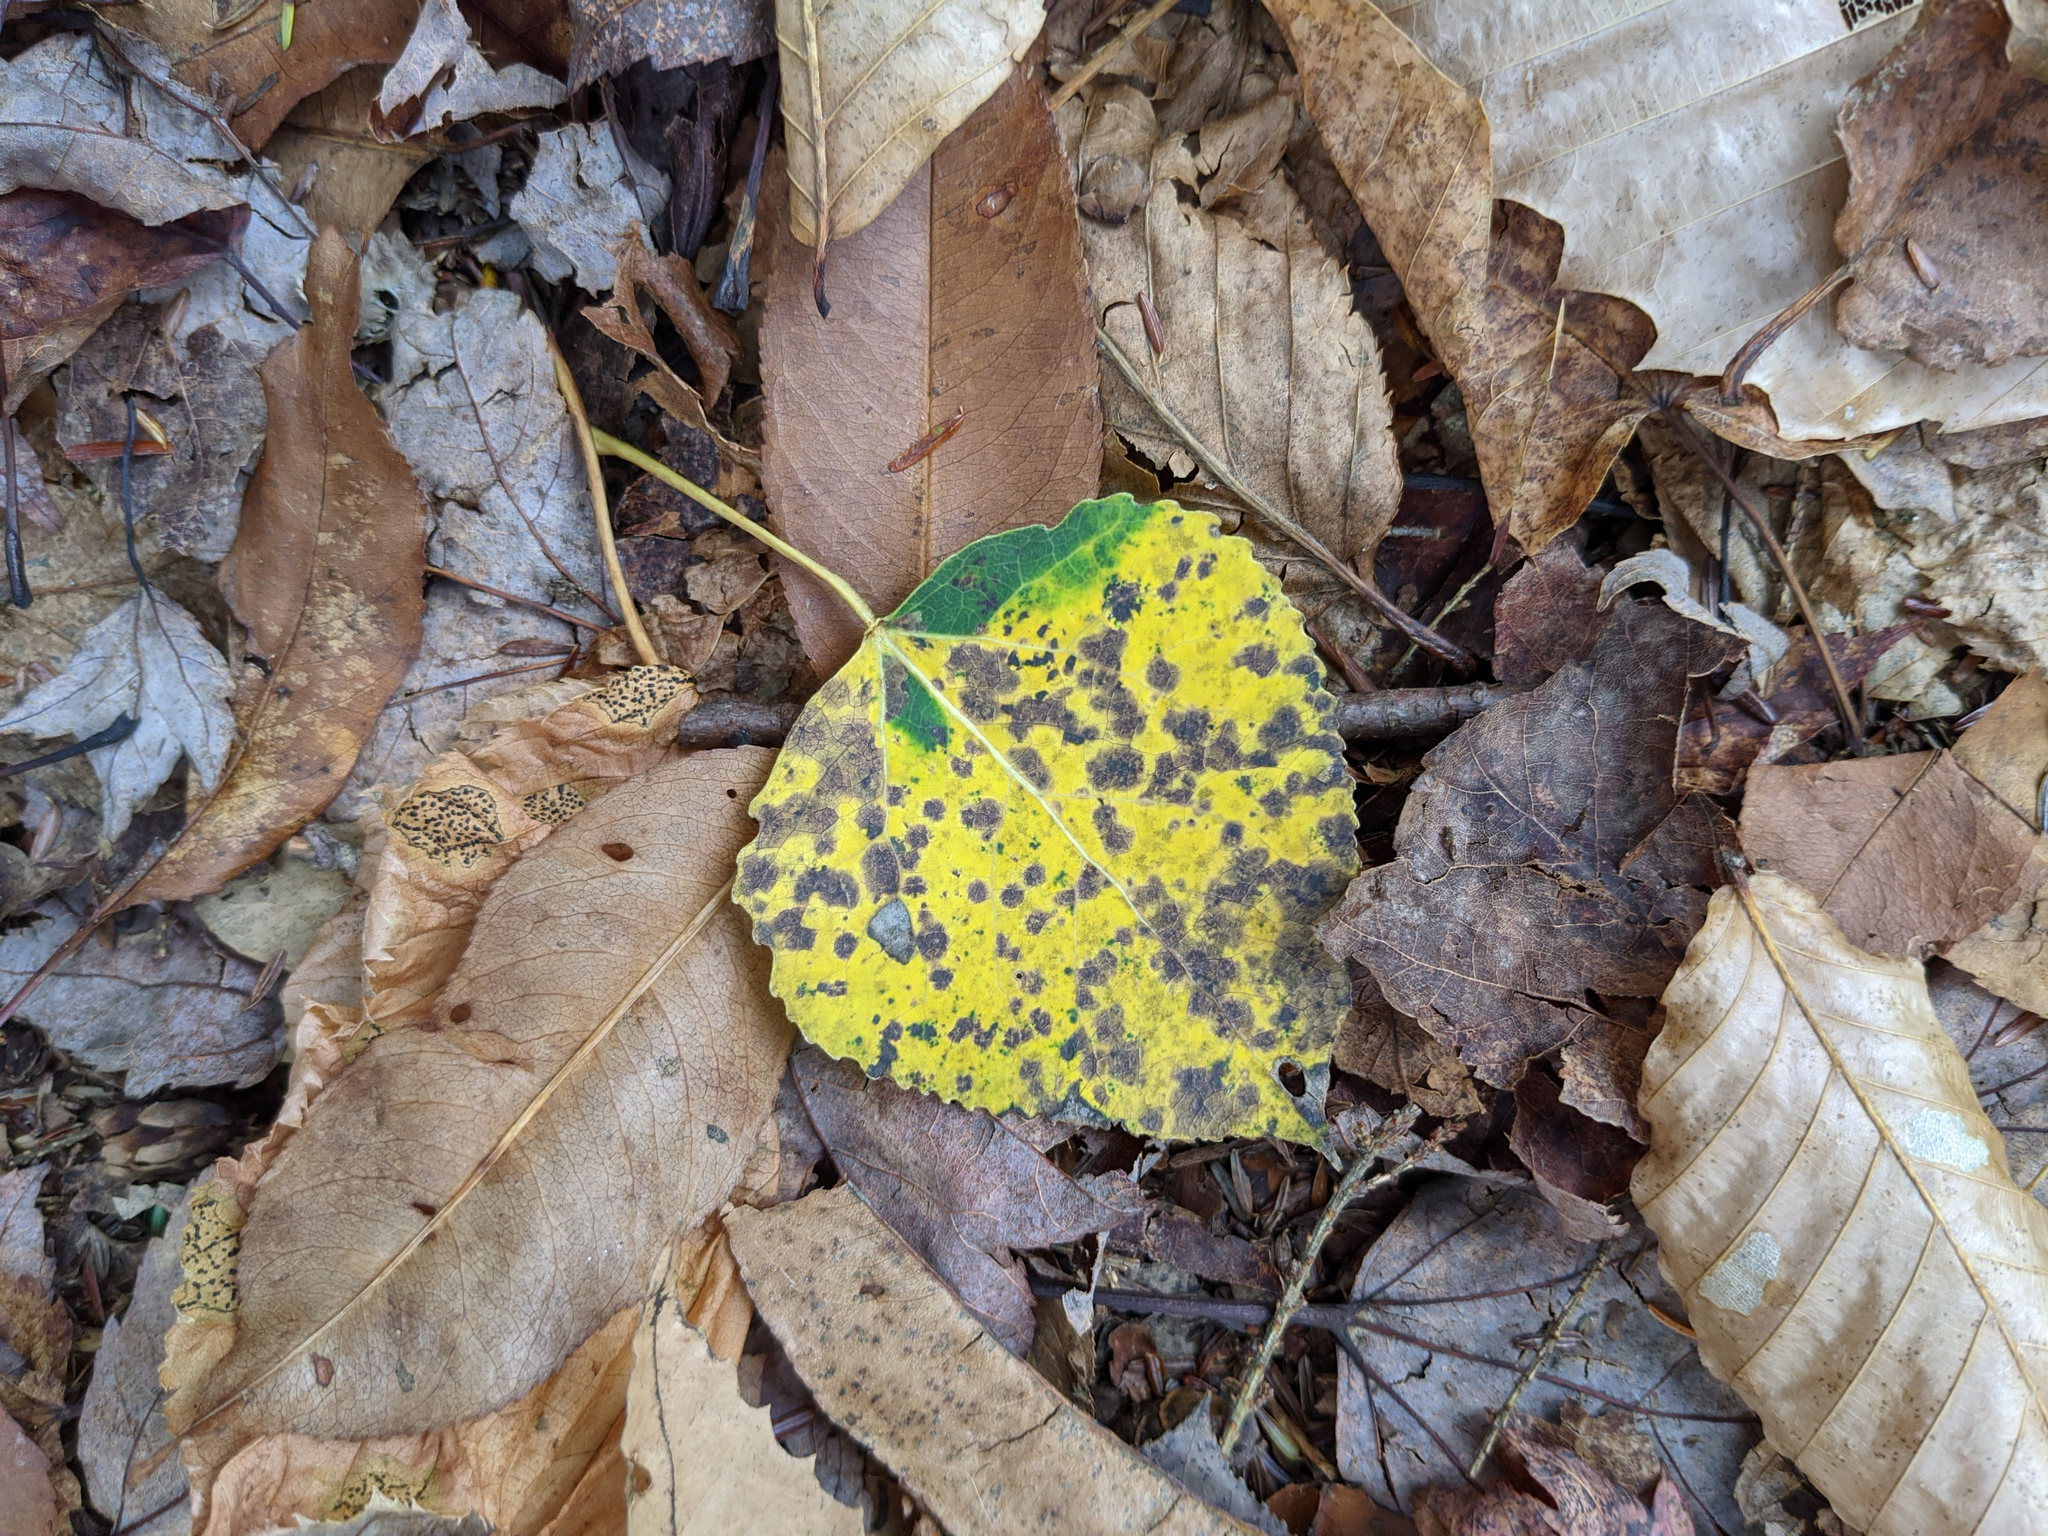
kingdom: Plantae
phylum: Tracheophyta
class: Magnoliopsida
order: Malpighiales
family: Salicaceae
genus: Populus
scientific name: Populus tremuloides
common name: Quaking aspen
